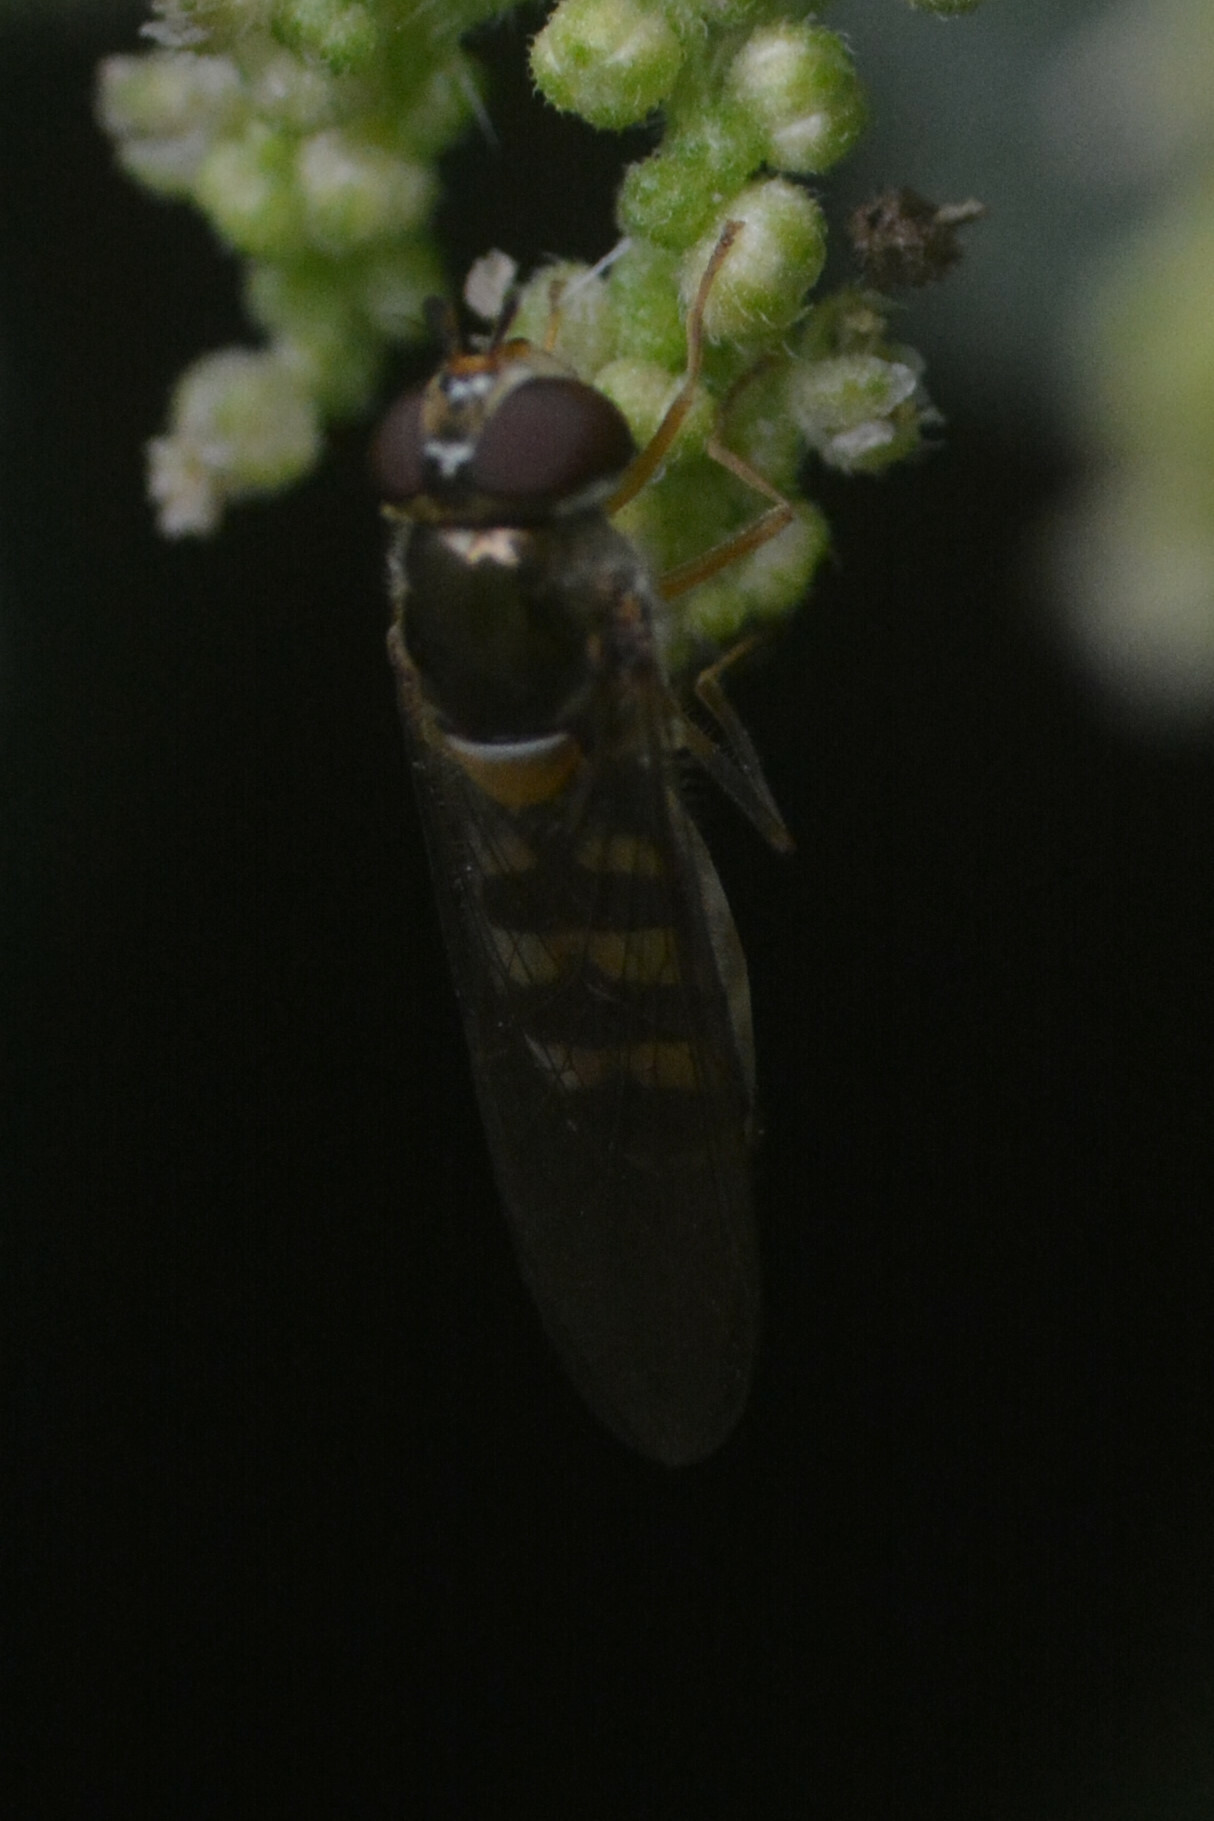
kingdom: Animalia
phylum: Arthropoda
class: Insecta
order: Diptera
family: Syrphidae
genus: Meliscaeva
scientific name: Meliscaeva auricollis
